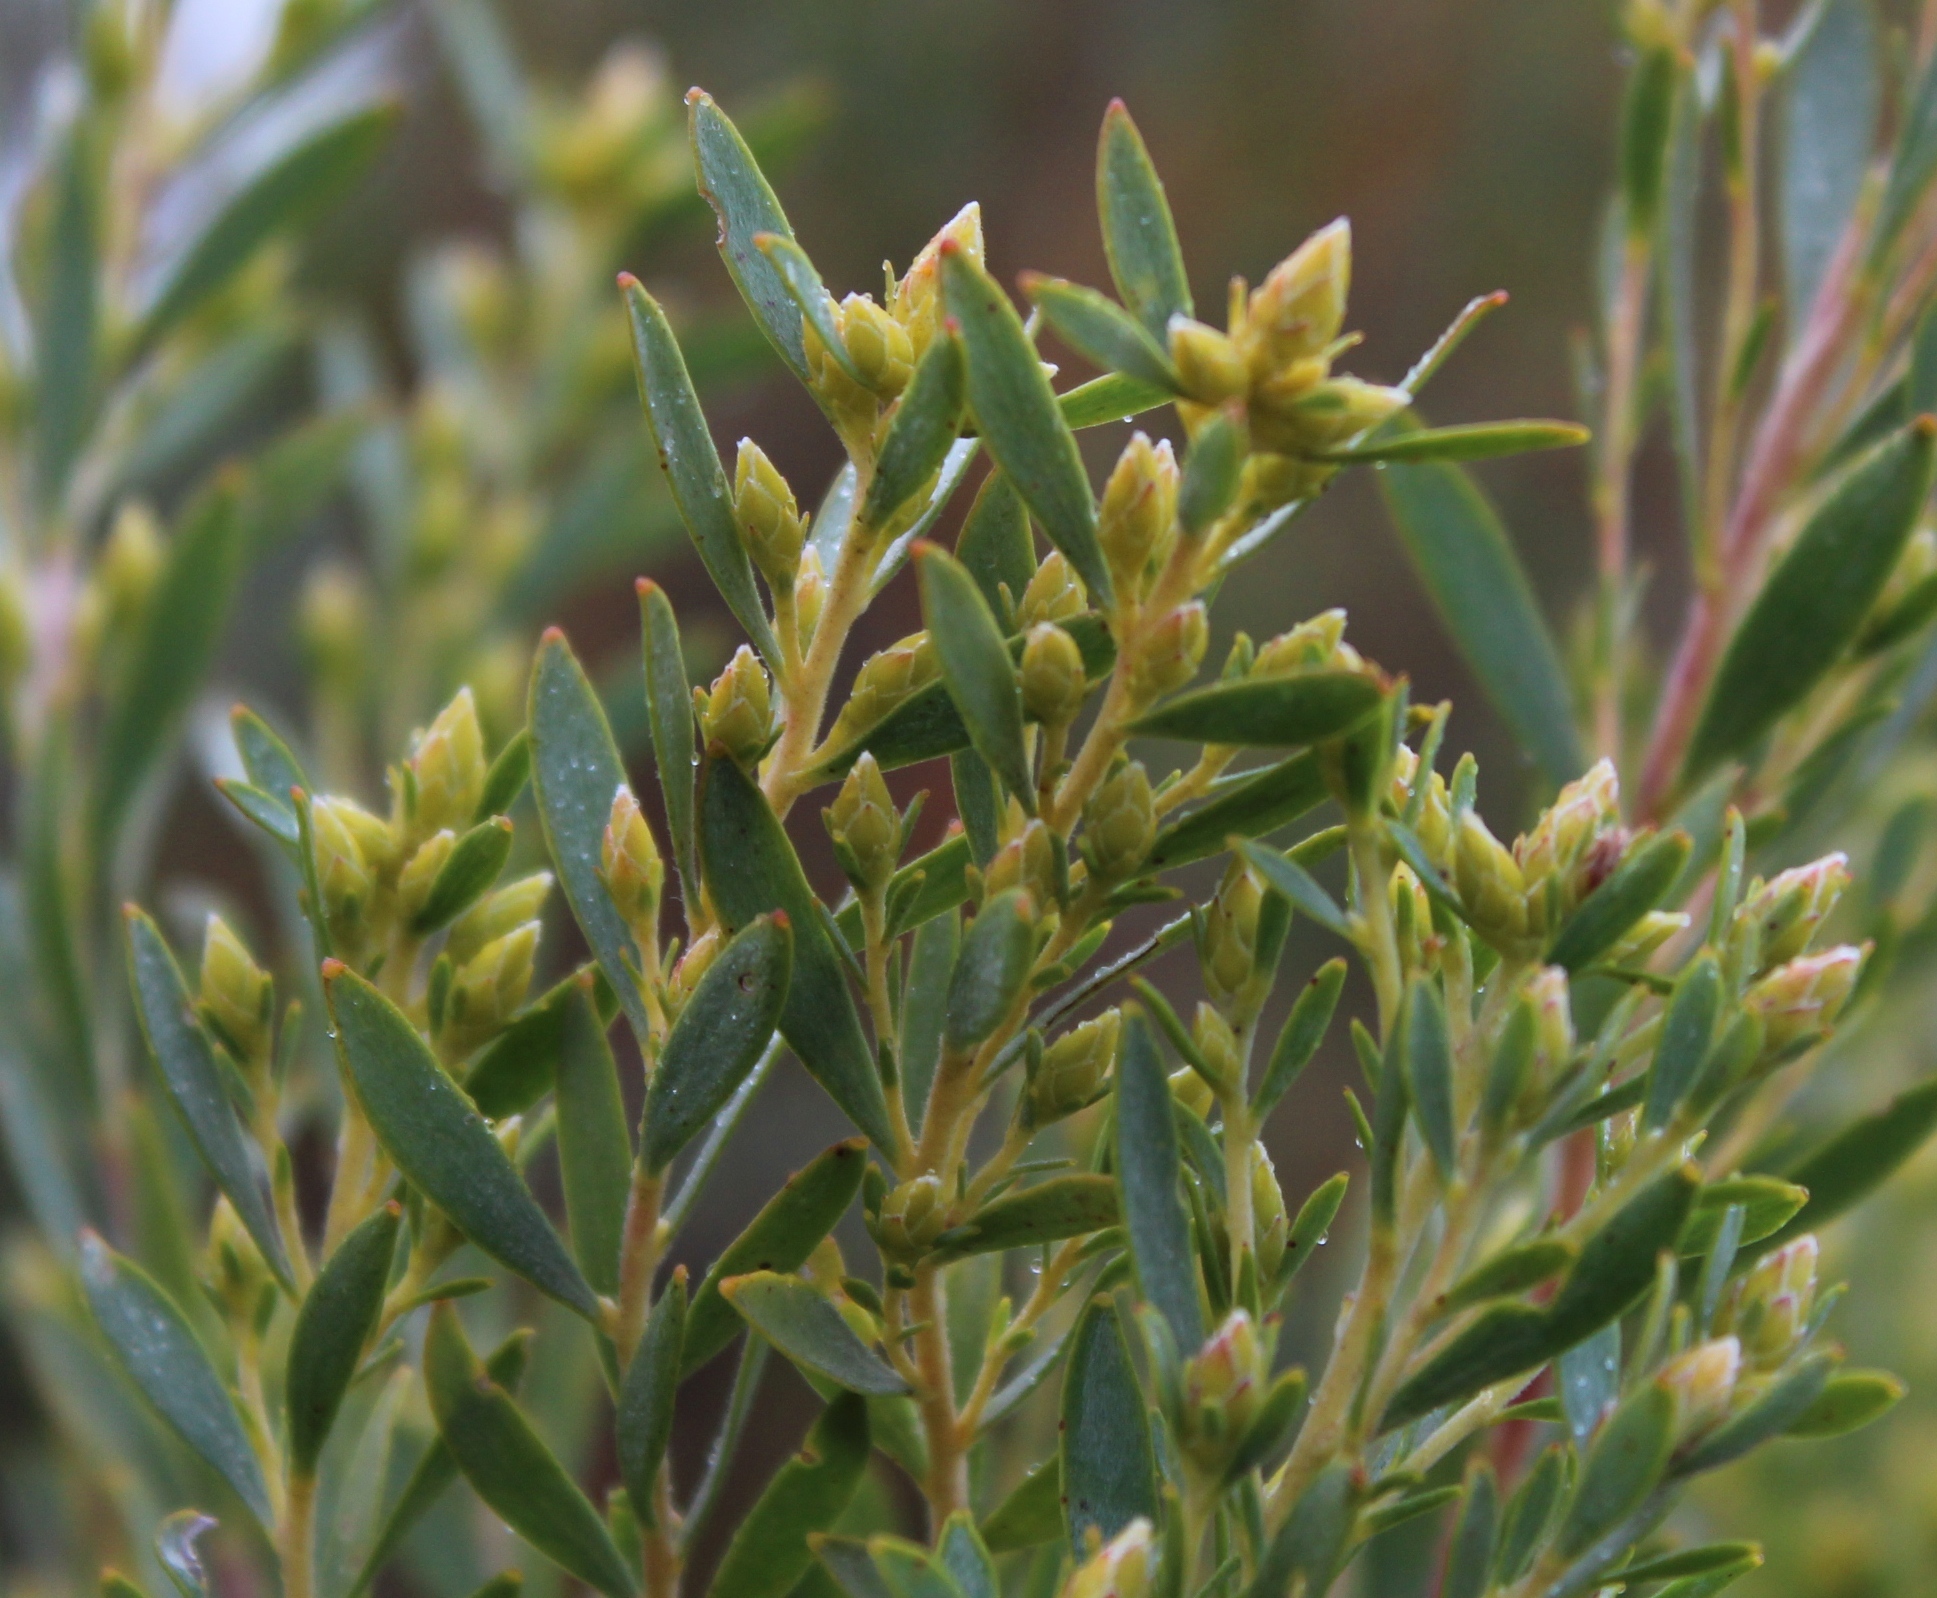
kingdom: Plantae
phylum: Tracheophyta
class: Magnoliopsida
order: Proteales
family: Proteaceae
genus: Leucadendron
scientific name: Leucadendron rubrum
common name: Spinning top
